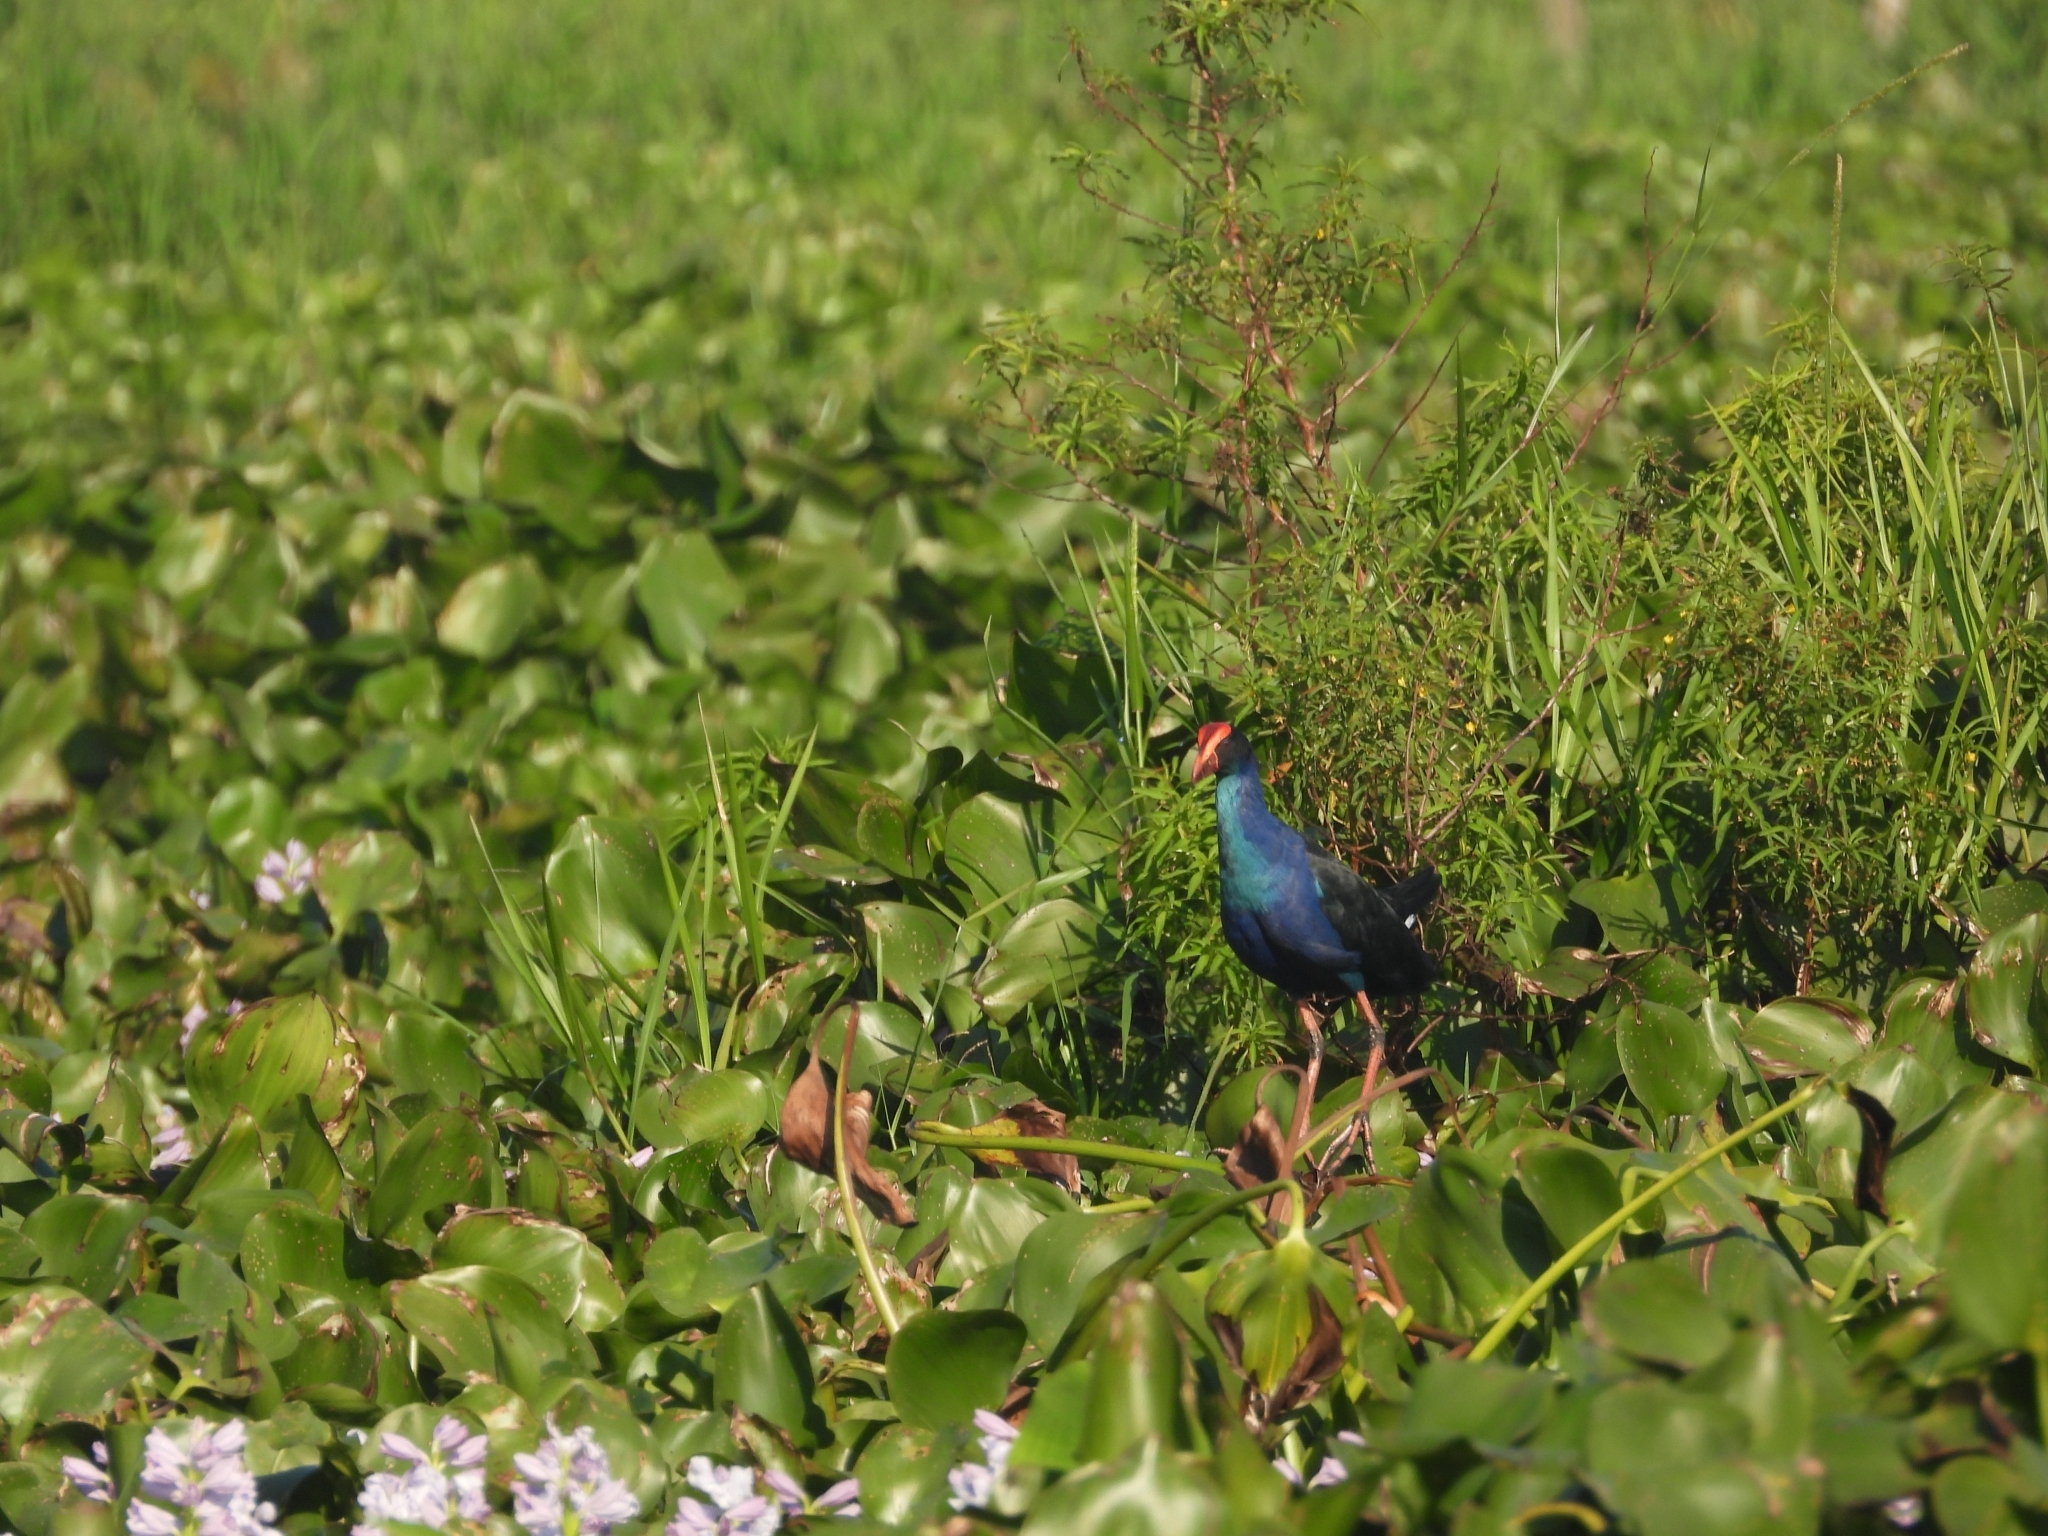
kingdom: Animalia
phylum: Chordata
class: Aves
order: Gruiformes
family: Rallidae
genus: Porphyrio
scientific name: Porphyrio indicus
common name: Black-backed swamphen
